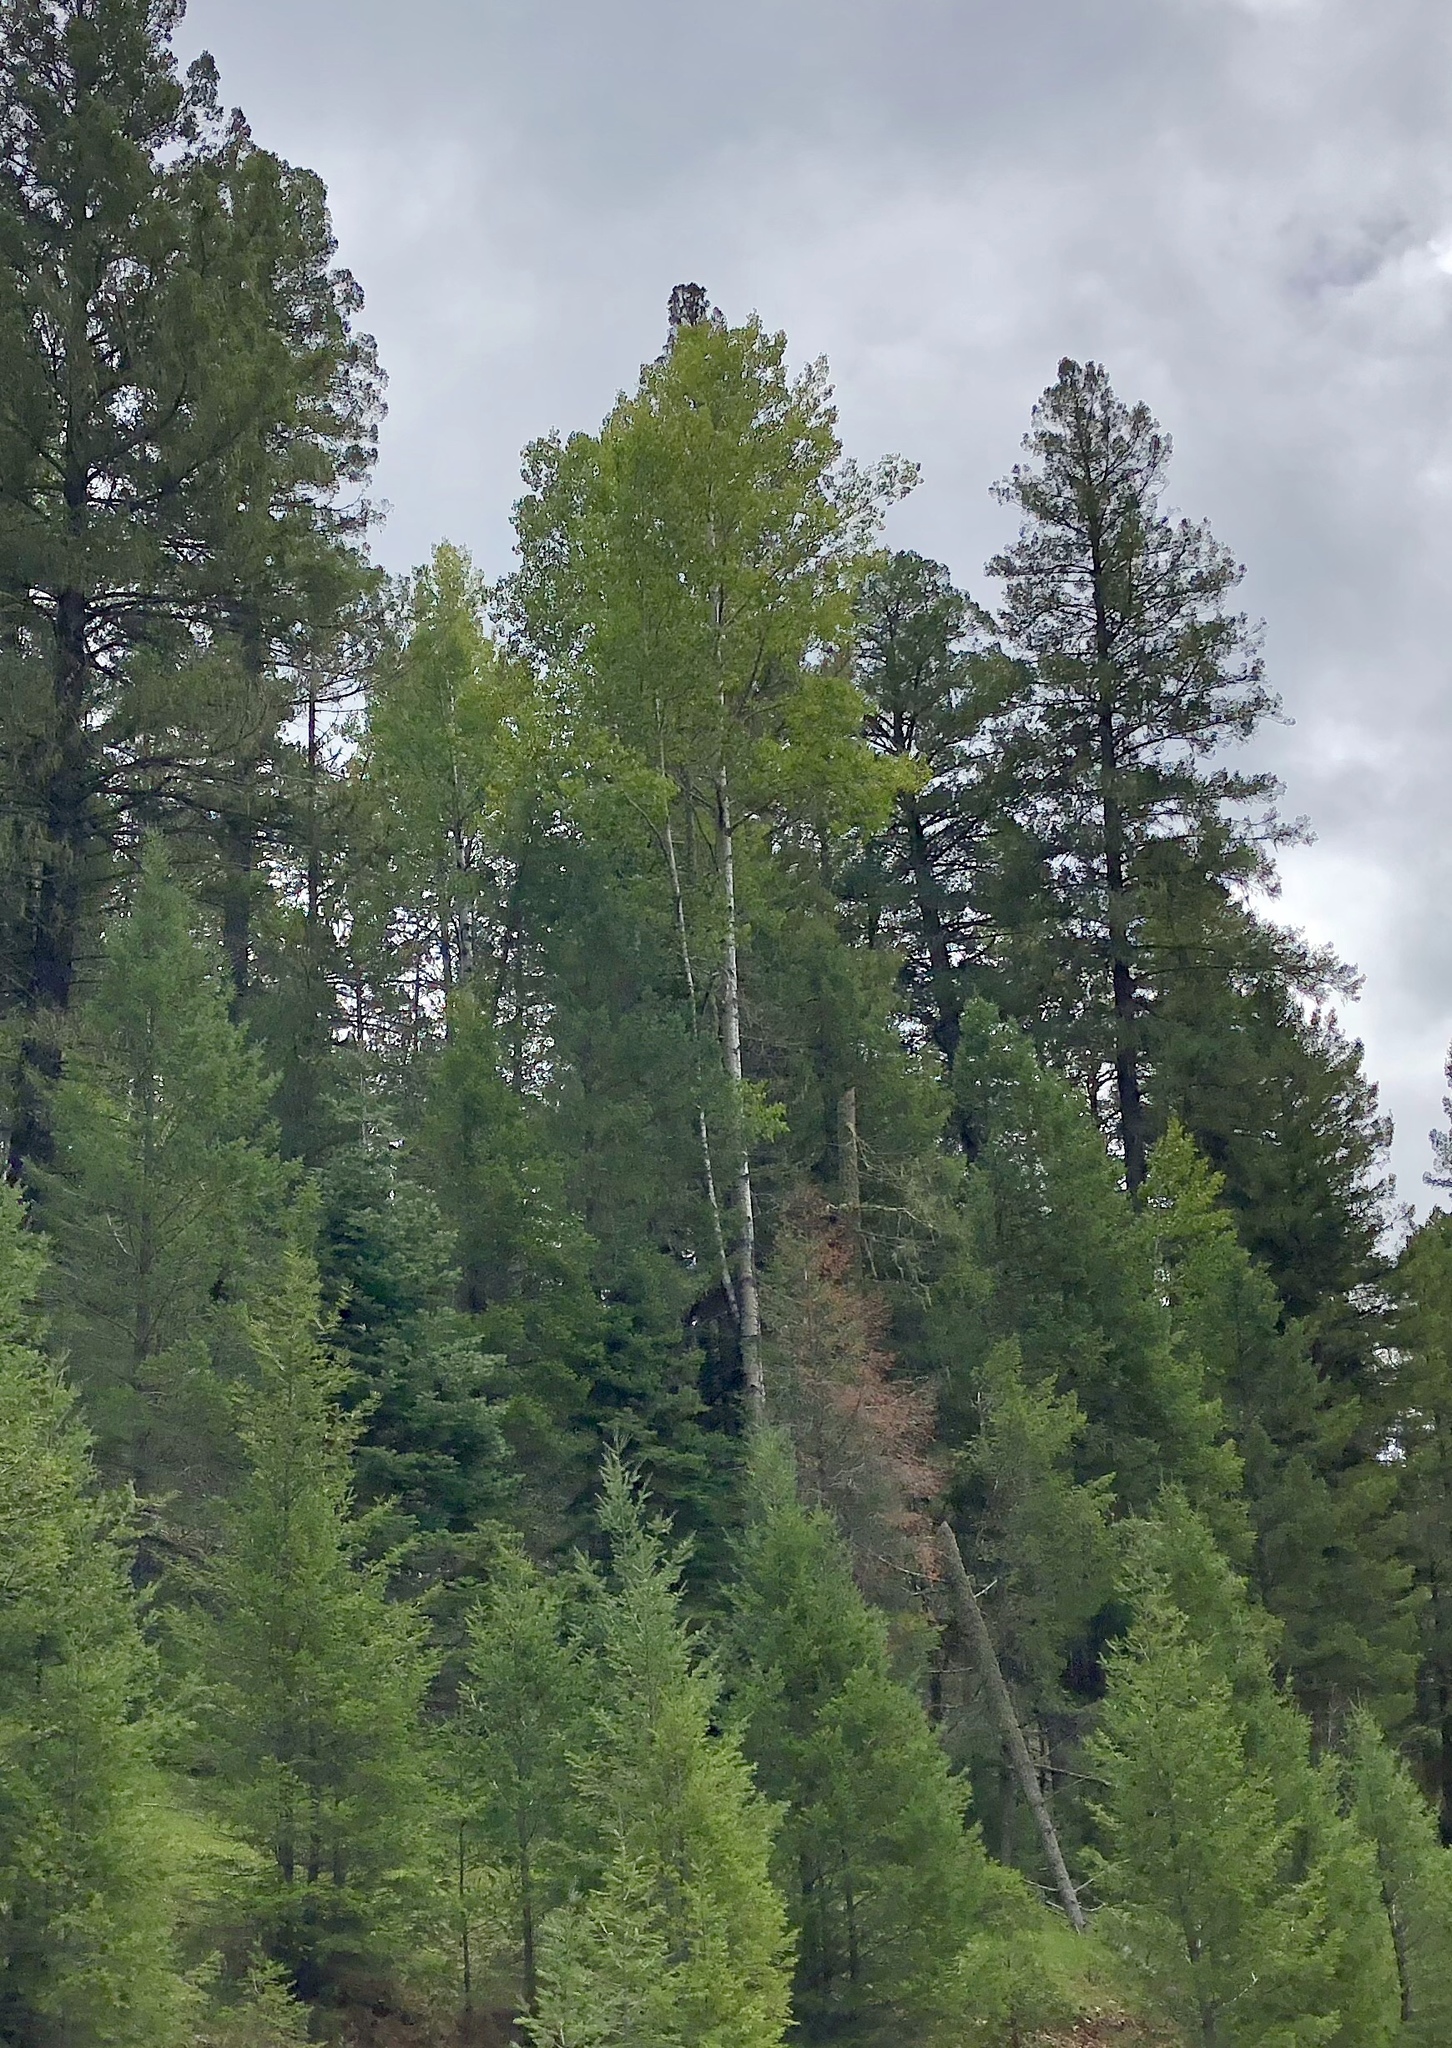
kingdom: Plantae
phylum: Tracheophyta
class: Magnoliopsida
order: Malpighiales
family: Salicaceae
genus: Populus
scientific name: Populus tremuloides
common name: Quaking aspen
